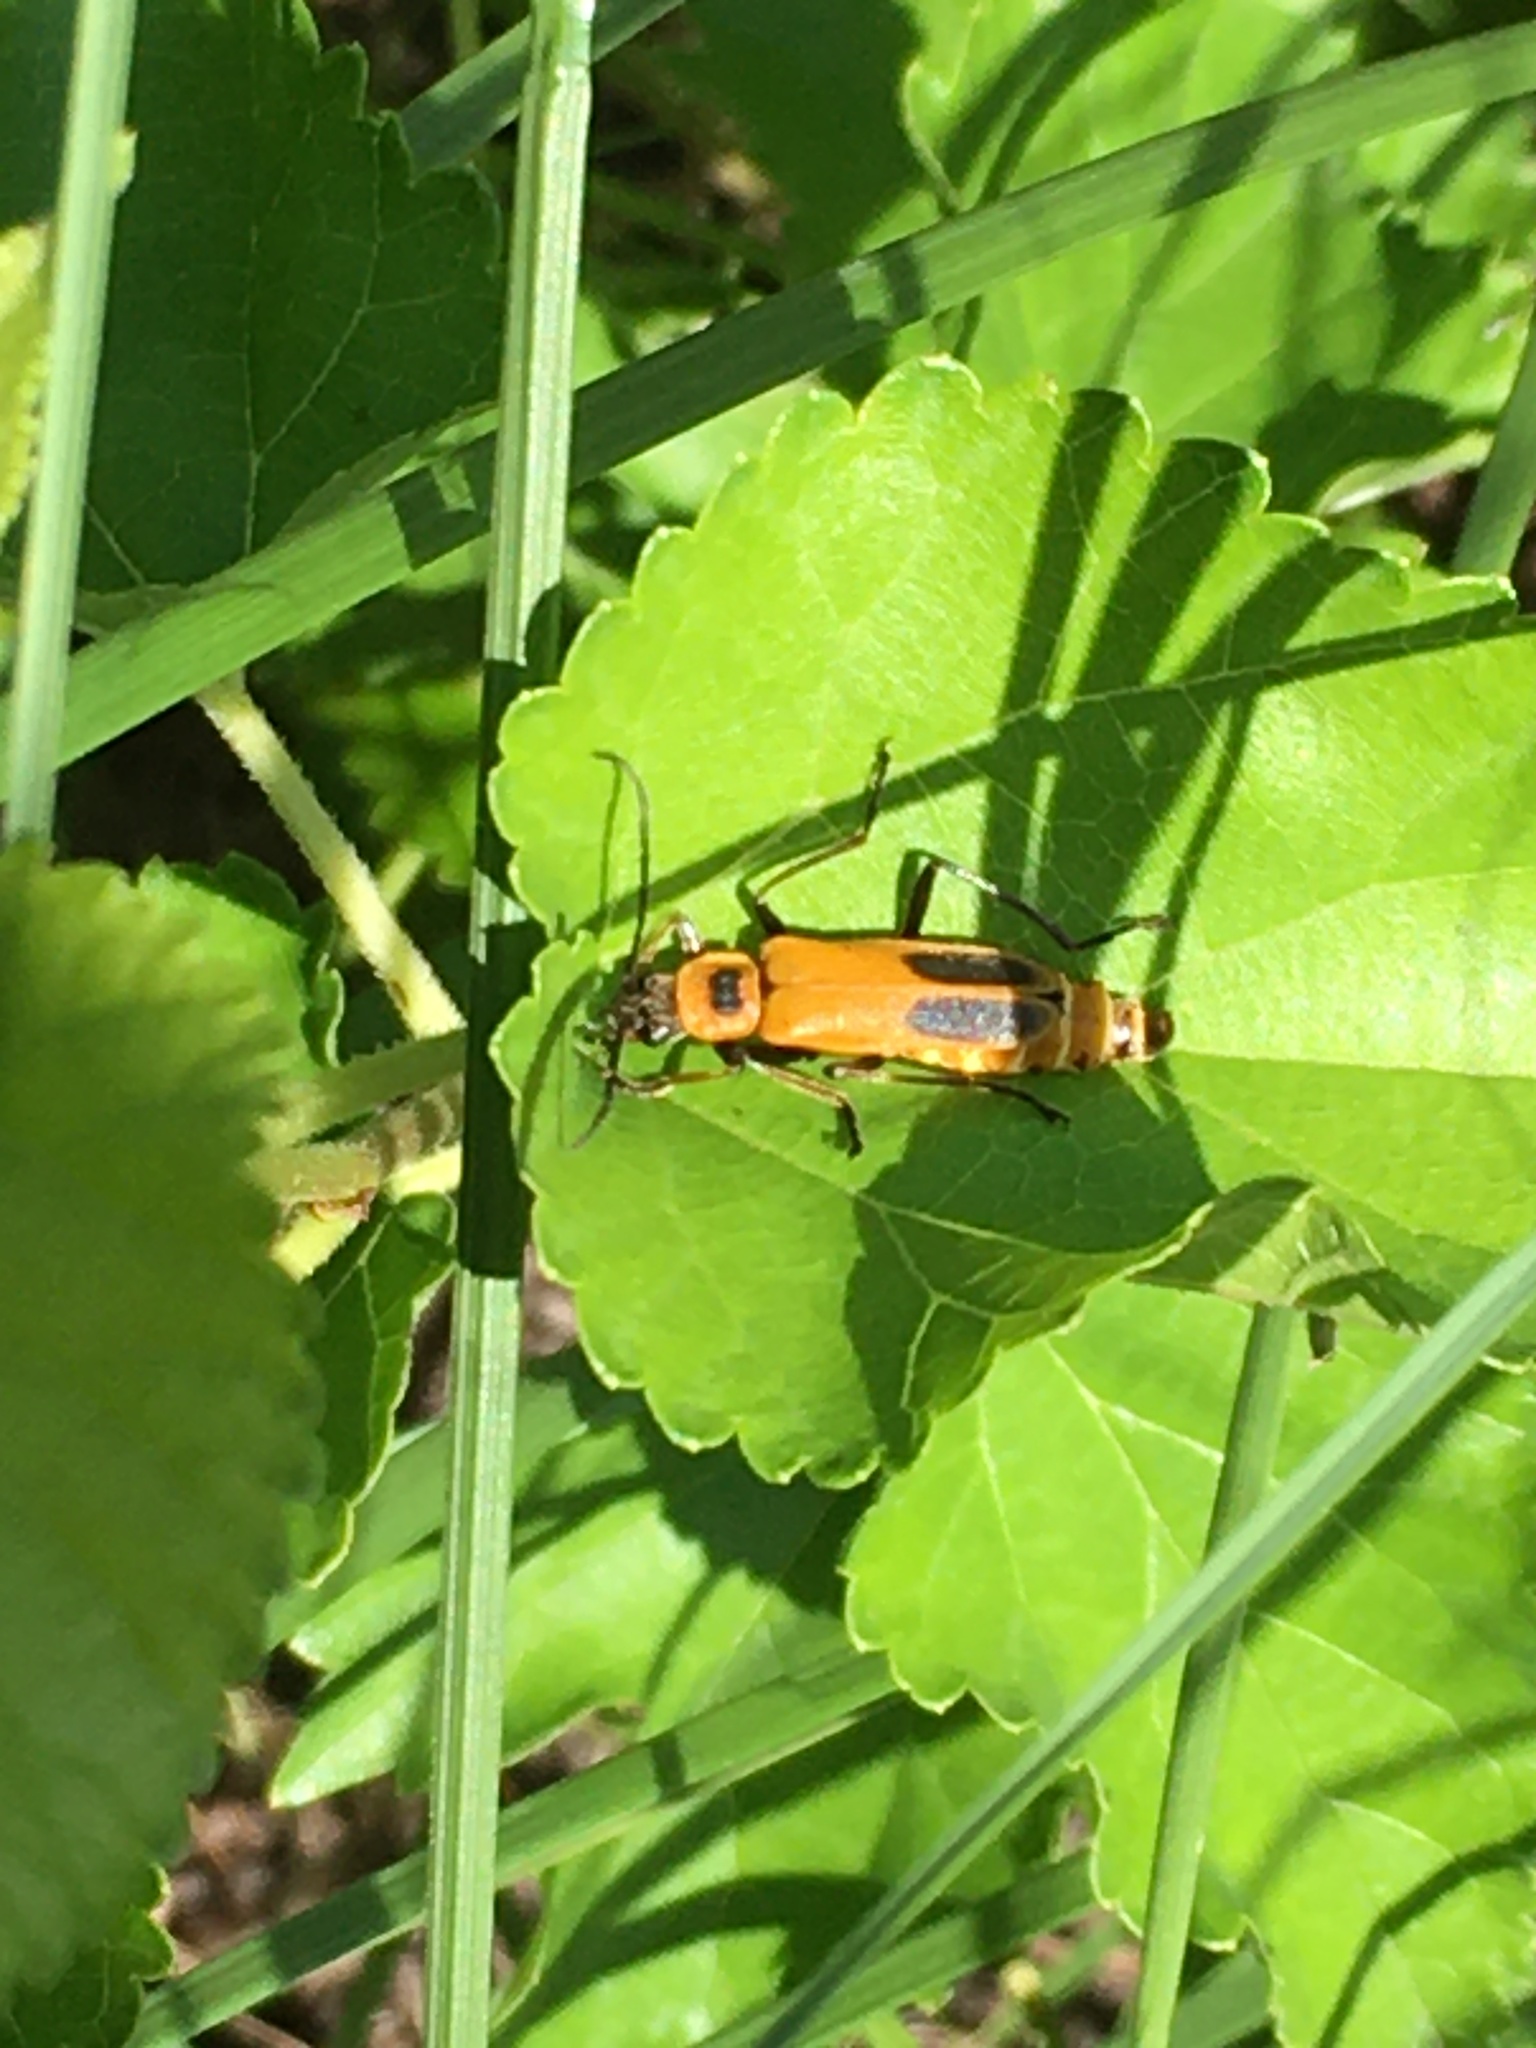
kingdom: Animalia
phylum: Arthropoda
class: Insecta
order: Coleoptera
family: Cantharidae
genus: Chauliognathus
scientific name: Chauliognathus pensylvanicus
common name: Goldenrod soldier beetle
